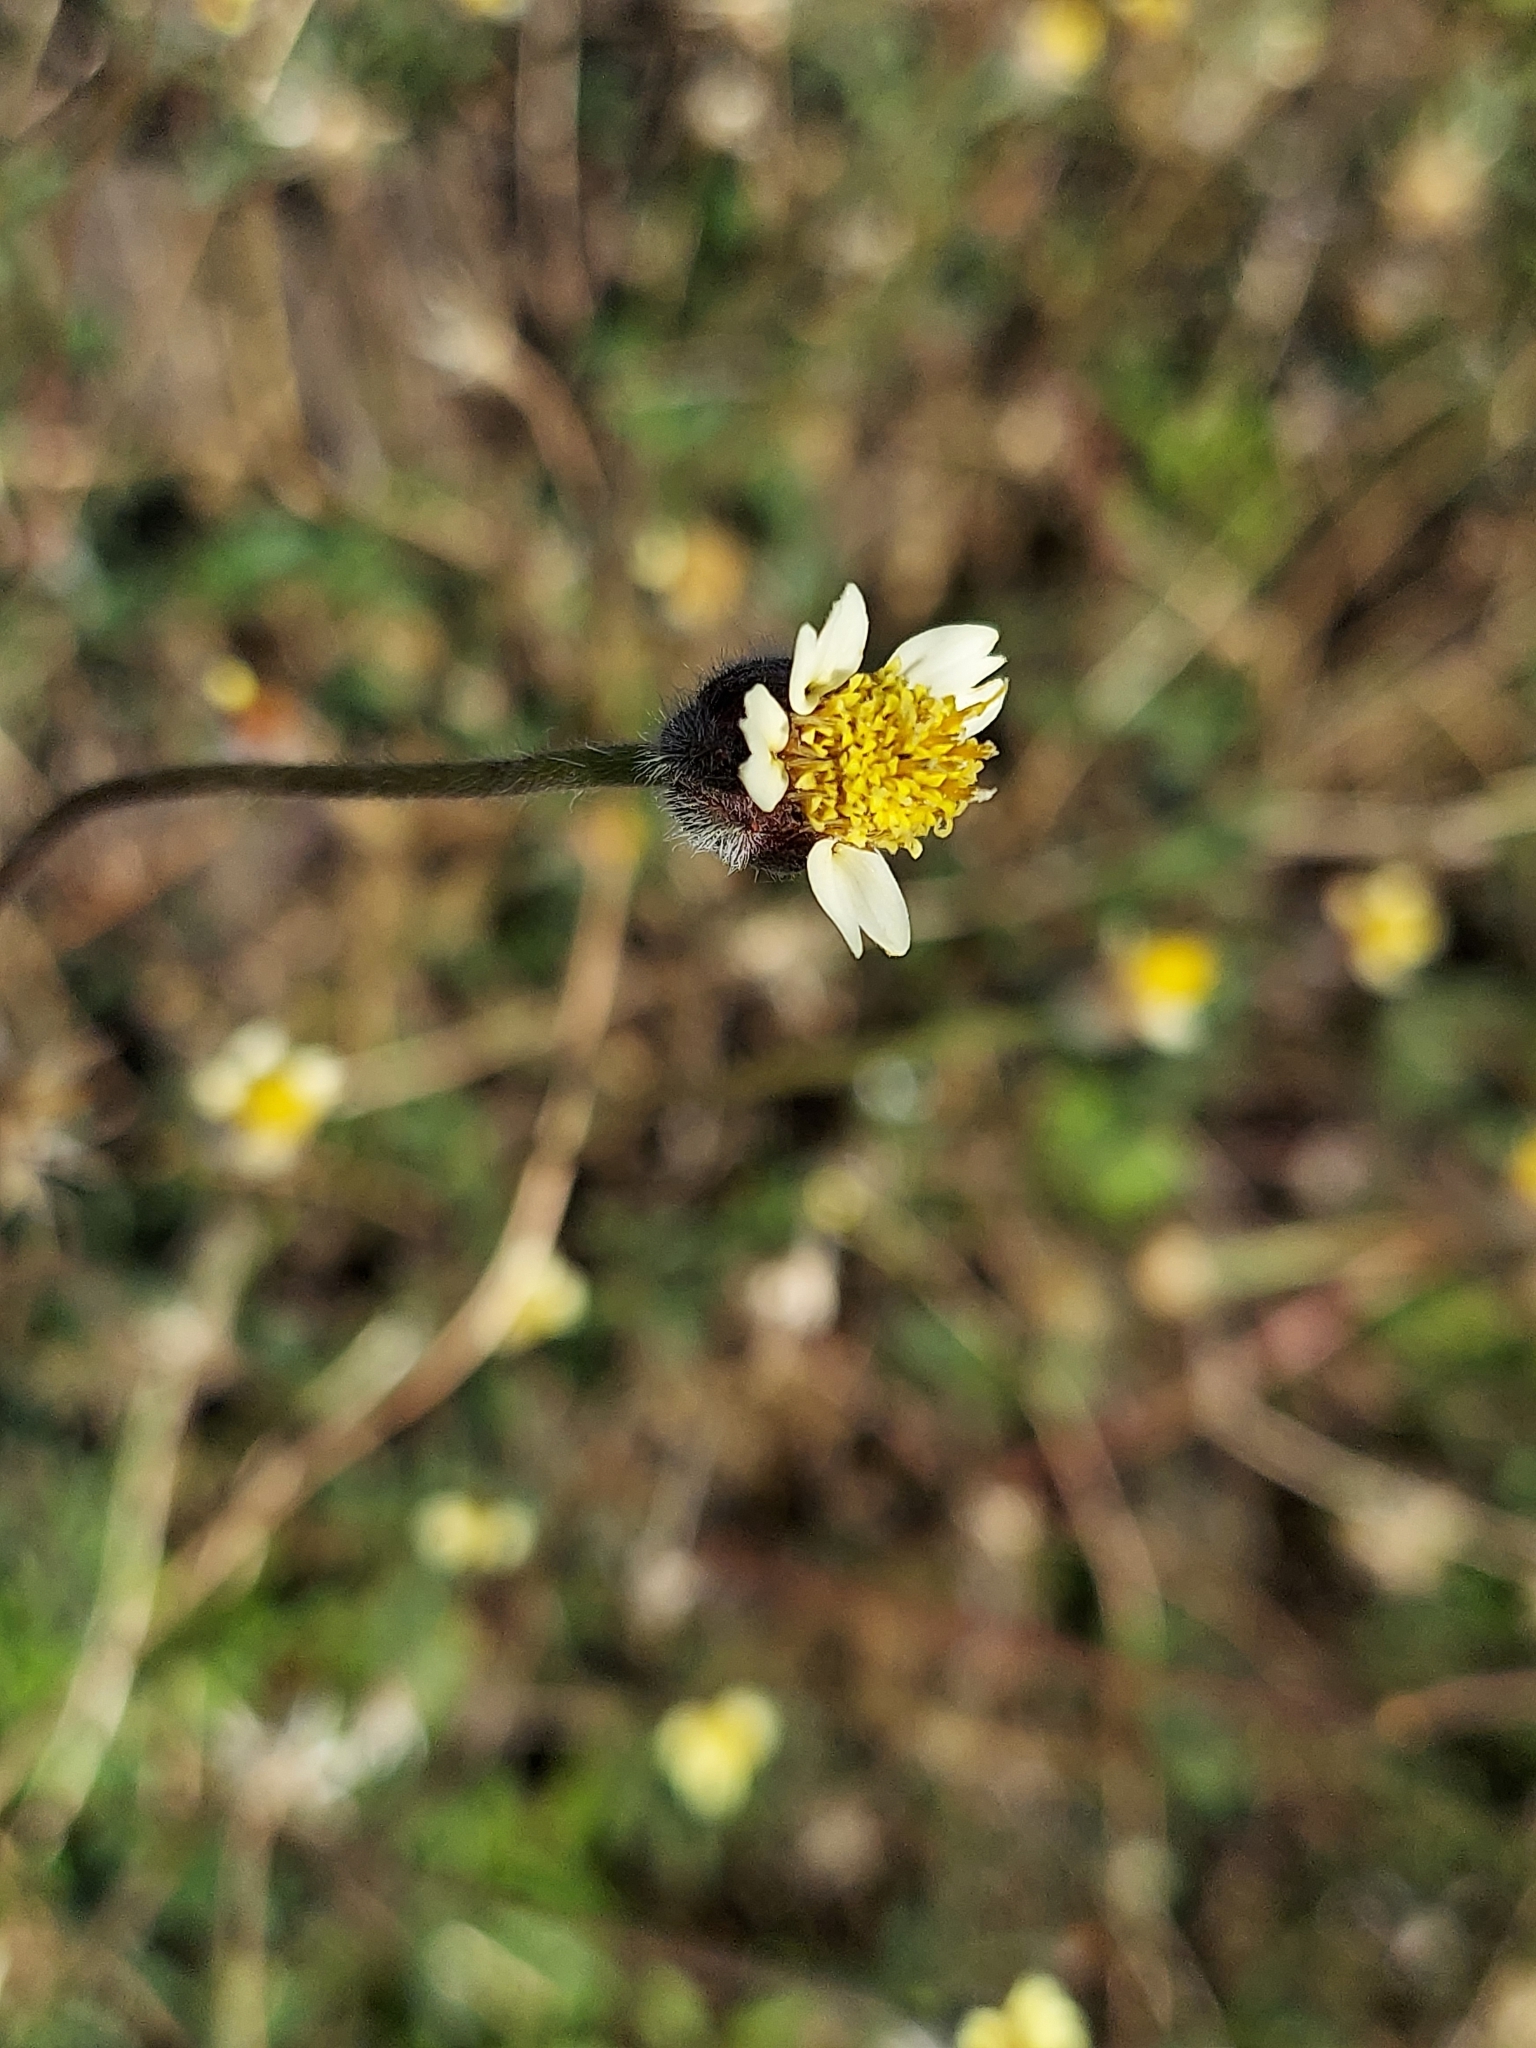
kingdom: Plantae
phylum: Tracheophyta
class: Magnoliopsida
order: Asterales
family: Asteraceae
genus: Tridax
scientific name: Tridax procumbens
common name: Coatbuttons
